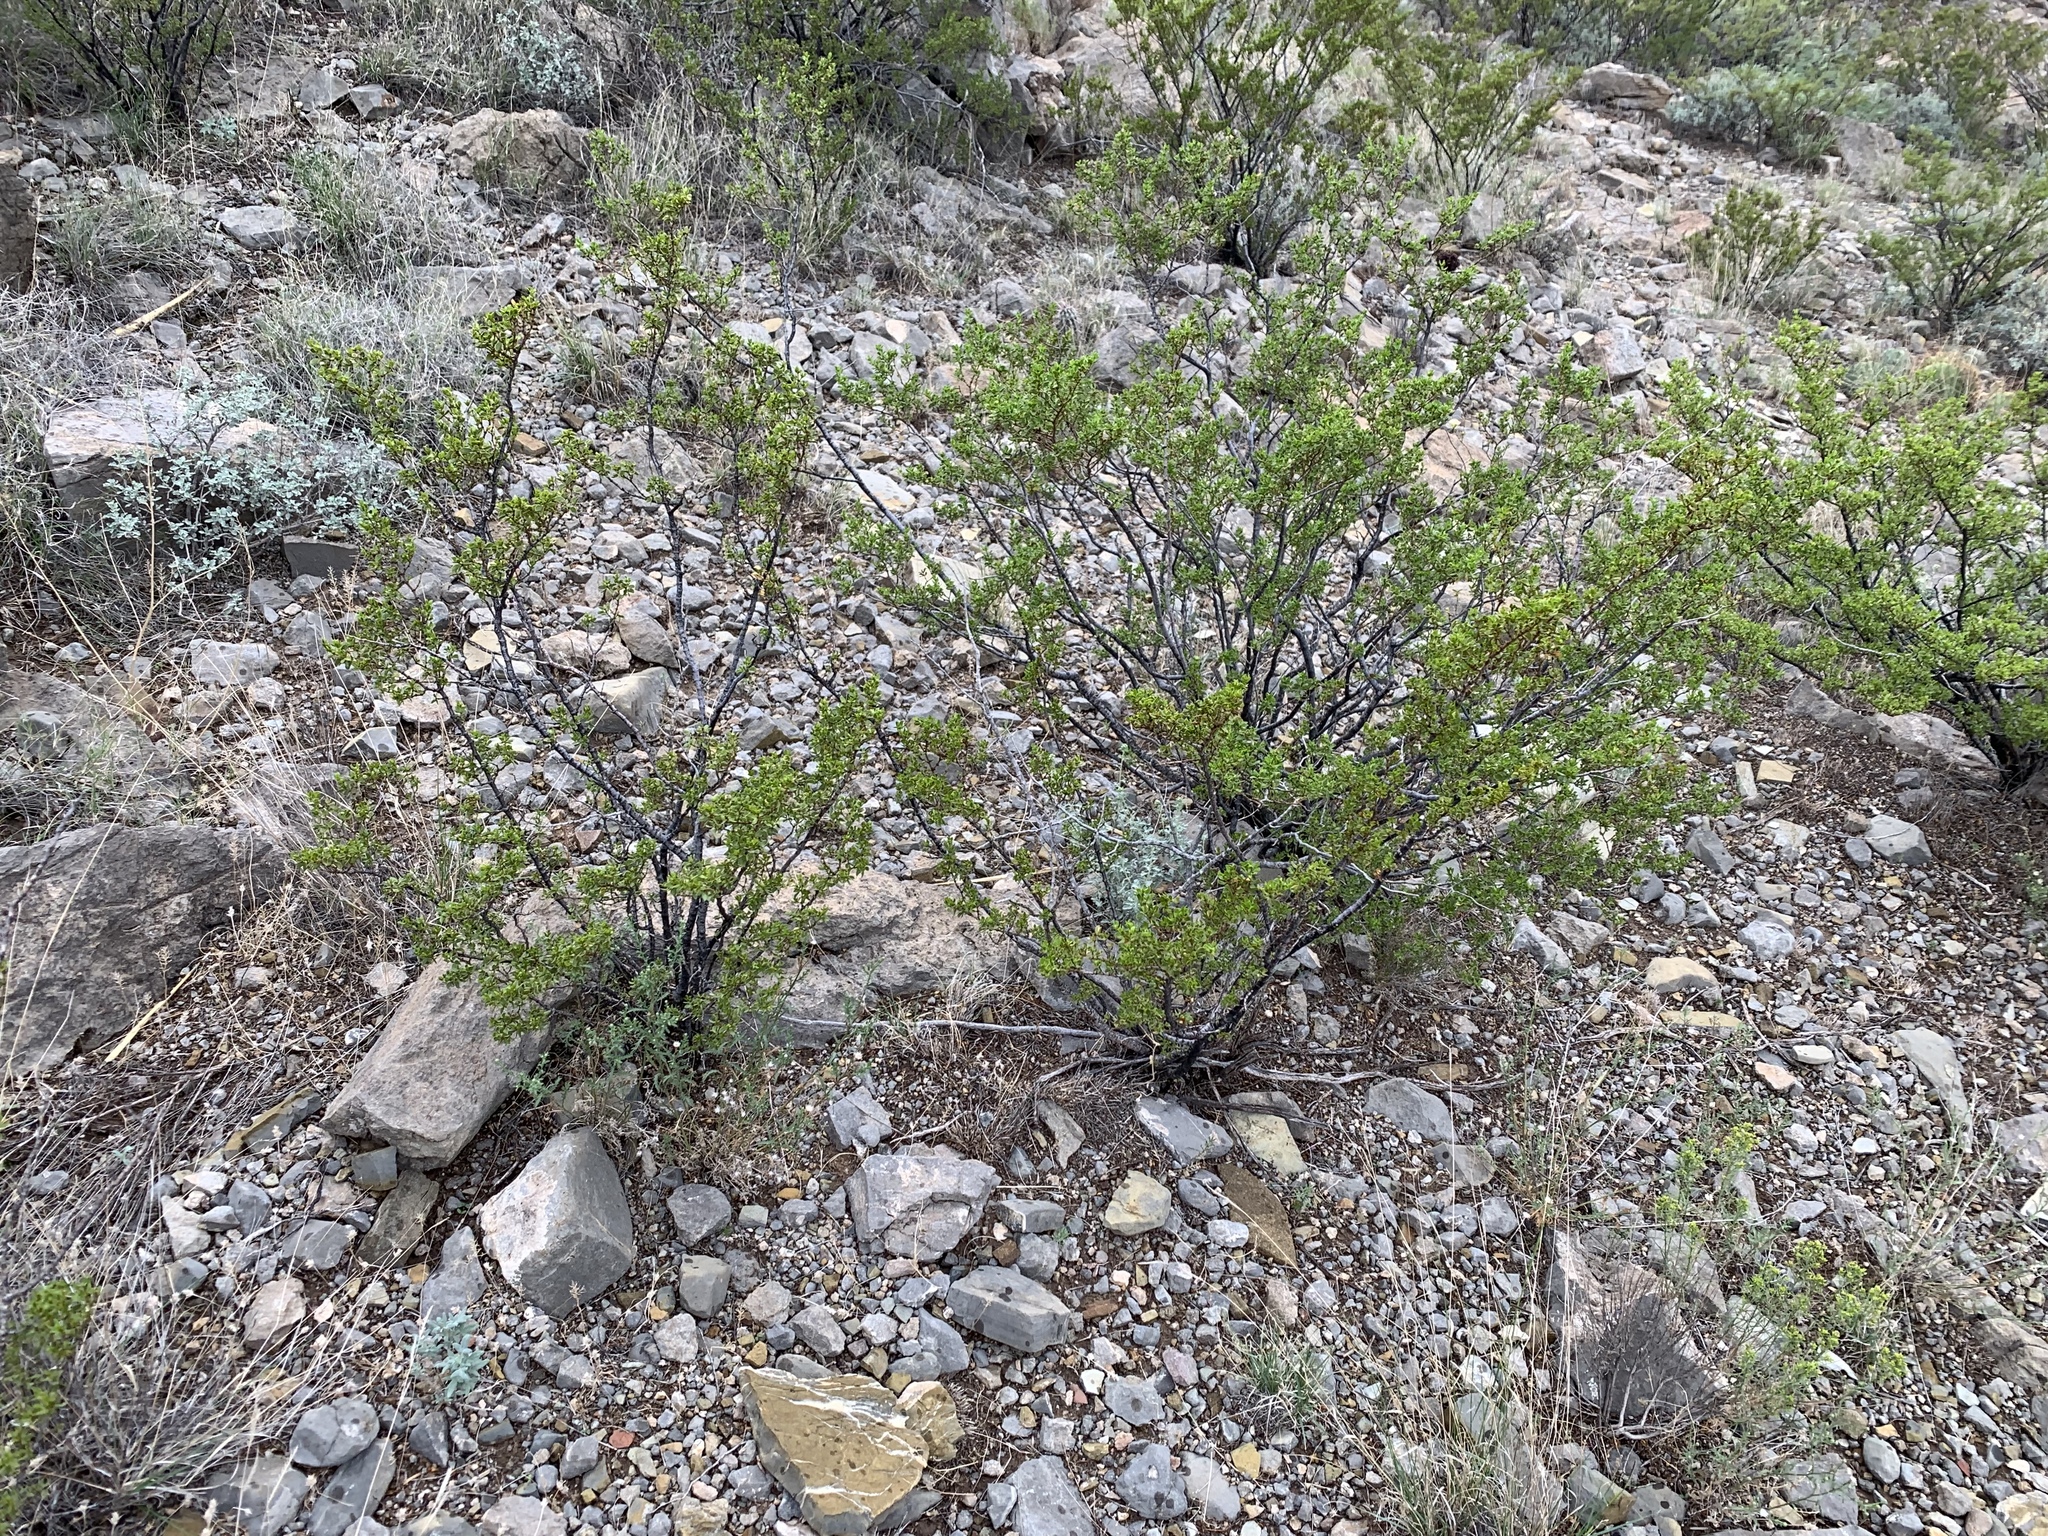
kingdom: Plantae
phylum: Tracheophyta
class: Magnoliopsida
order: Zygophyllales
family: Zygophyllaceae
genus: Larrea
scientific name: Larrea tridentata
